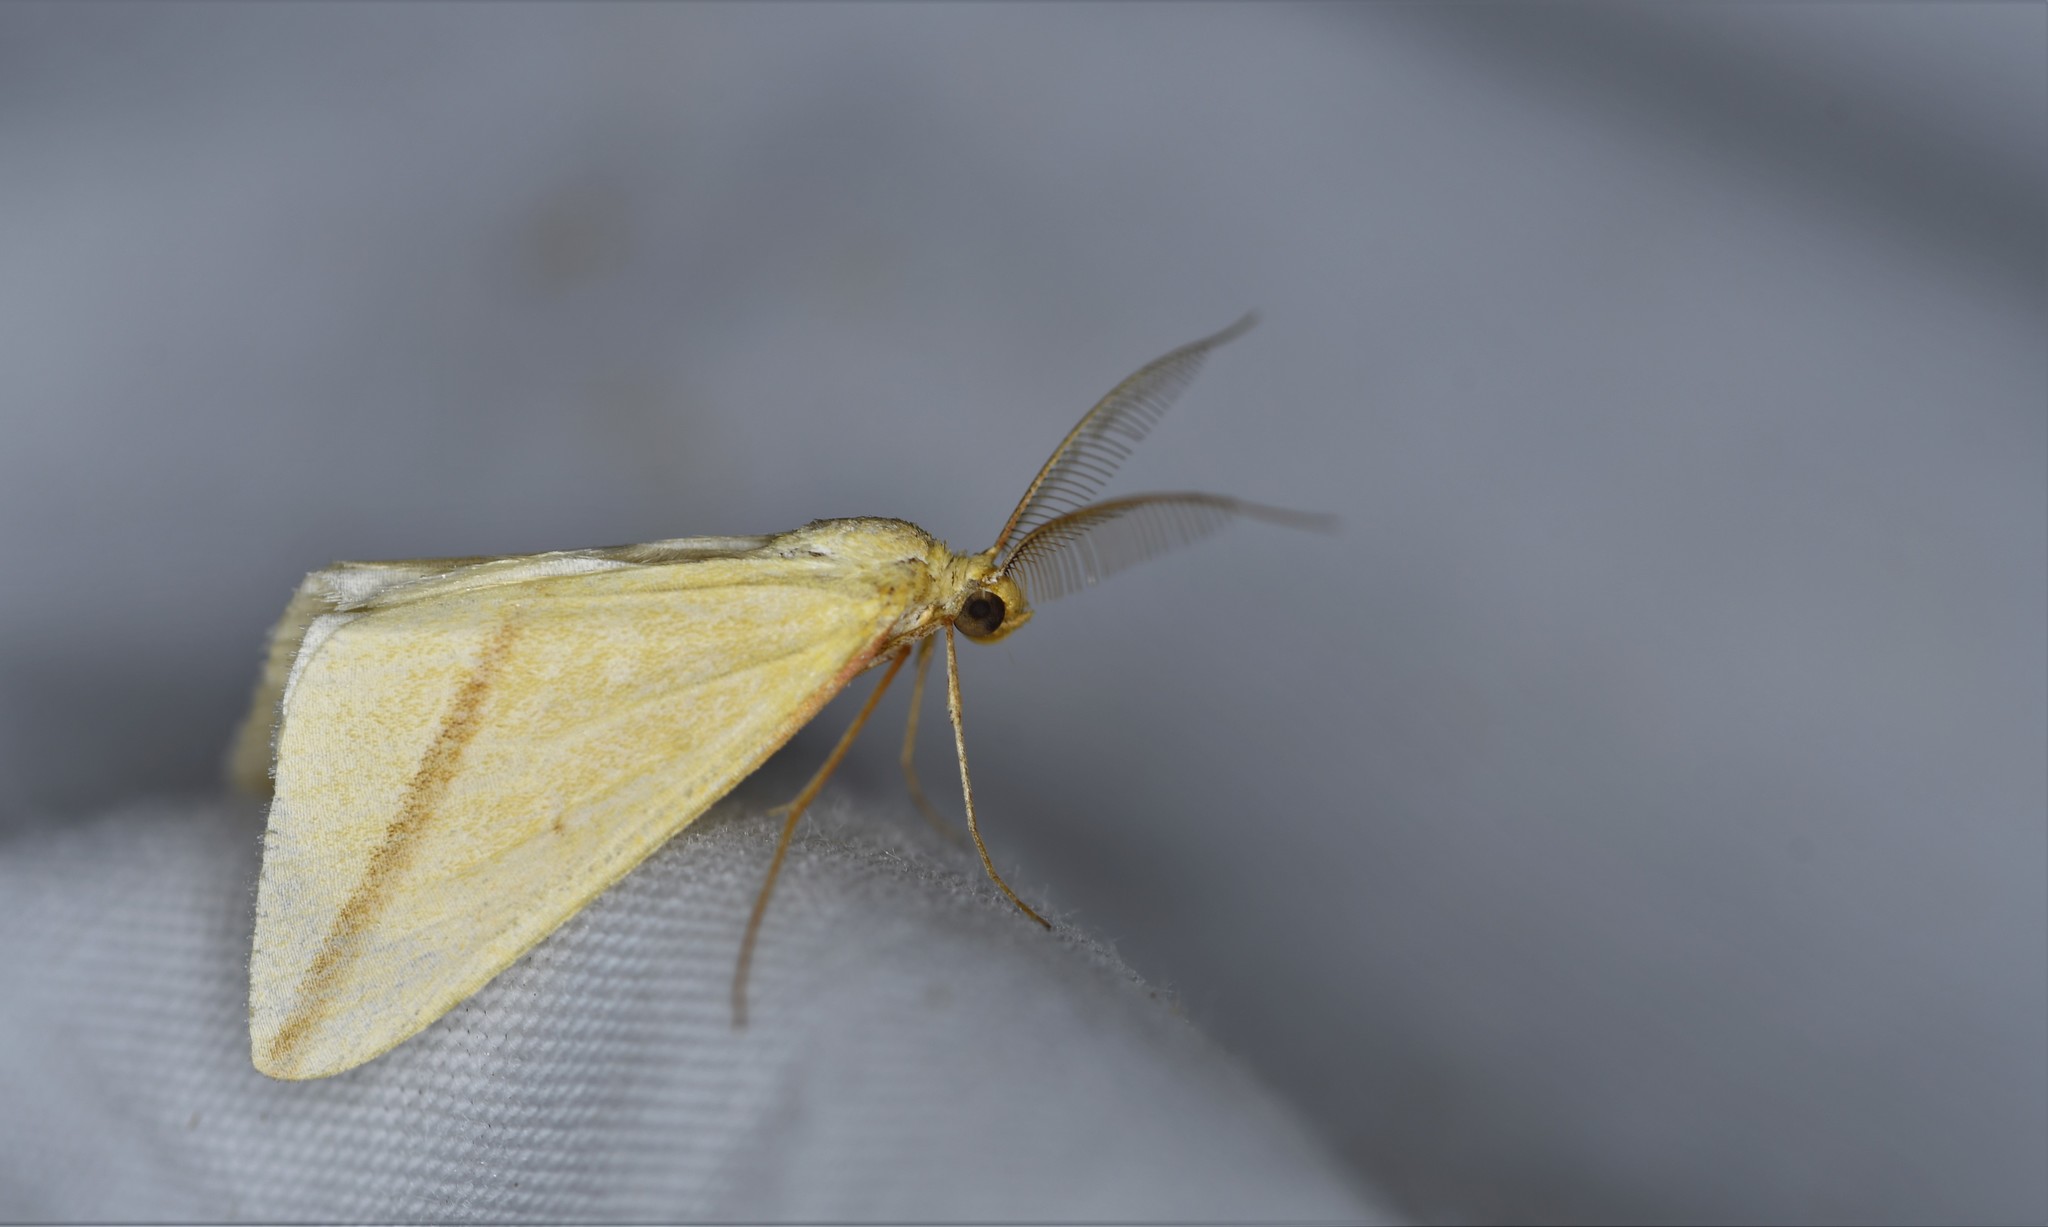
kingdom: Animalia
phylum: Arthropoda
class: Insecta
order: Lepidoptera
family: Geometridae
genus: Rhodometra
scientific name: Rhodometra sacraria
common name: Vestal
